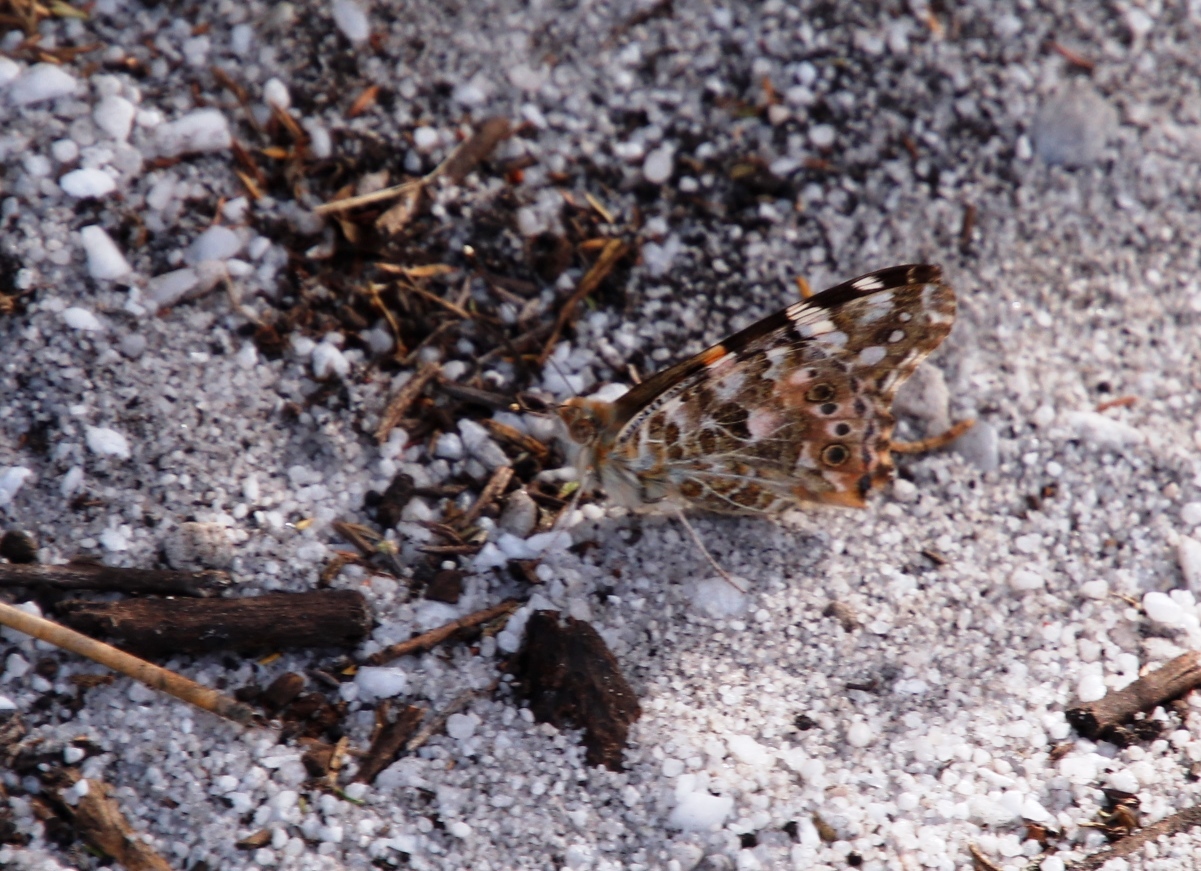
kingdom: Animalia
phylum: Arthropoda
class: Insecta
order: Lepidoptera
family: Nymphalidae
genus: Vanessa
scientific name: Vanessa cardui
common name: Painted lady
